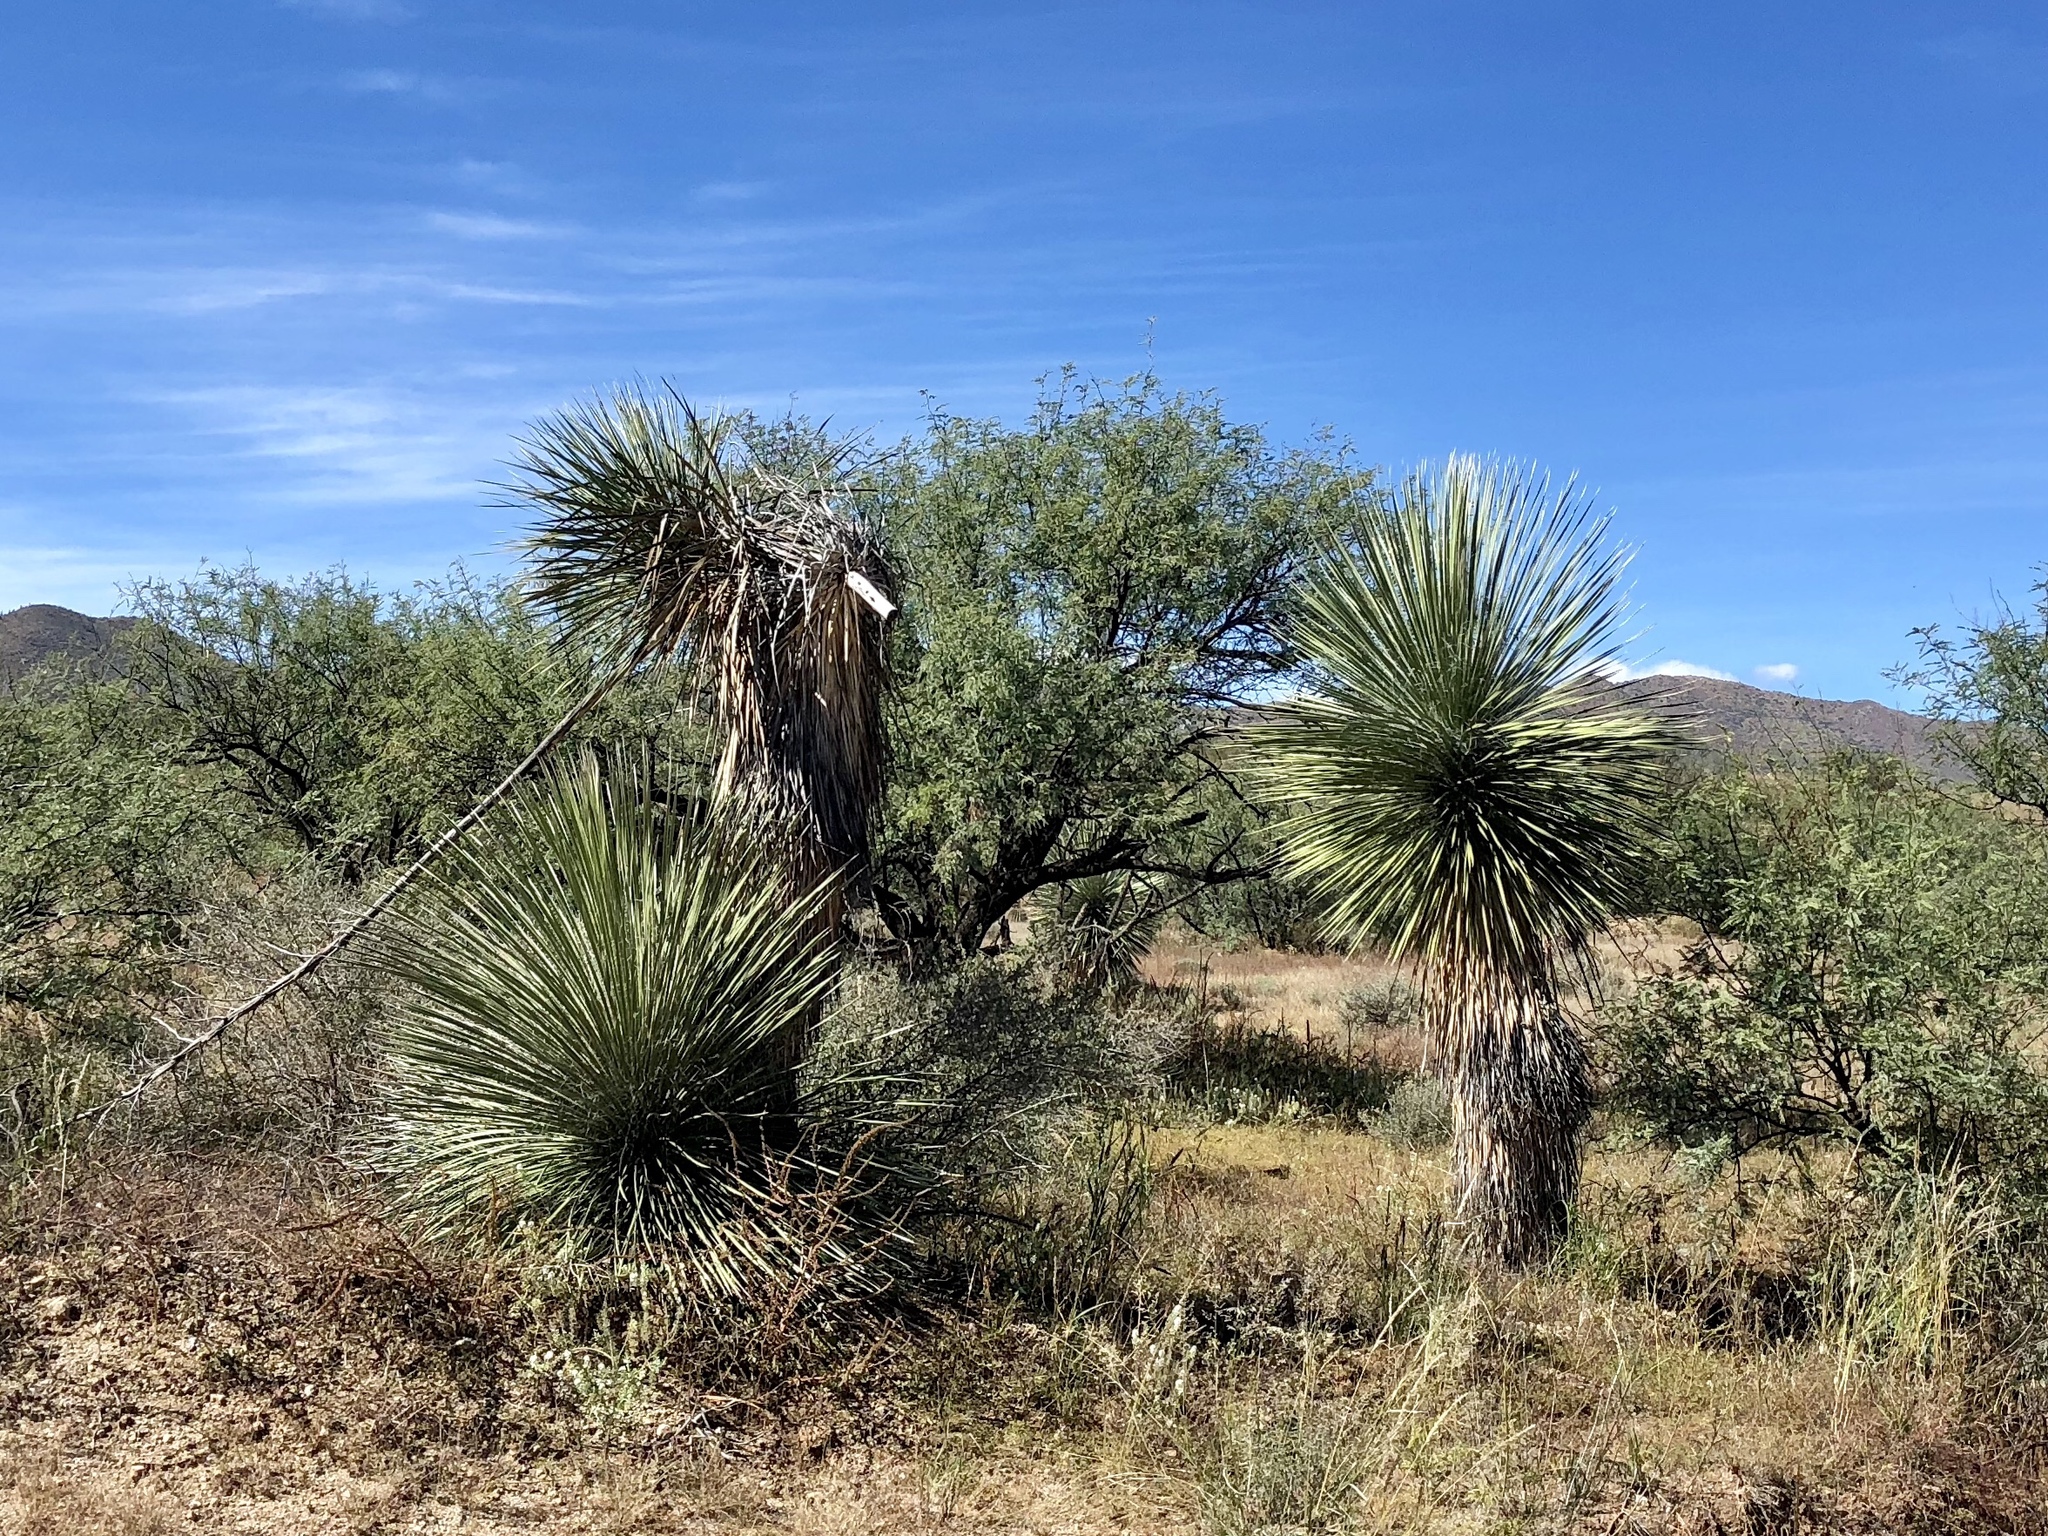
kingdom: Plantae
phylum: Tracheophyta
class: Liliopsida
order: Asparagales
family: Asparagaceae
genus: Yucca
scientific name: Yucca elata
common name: Palmella
